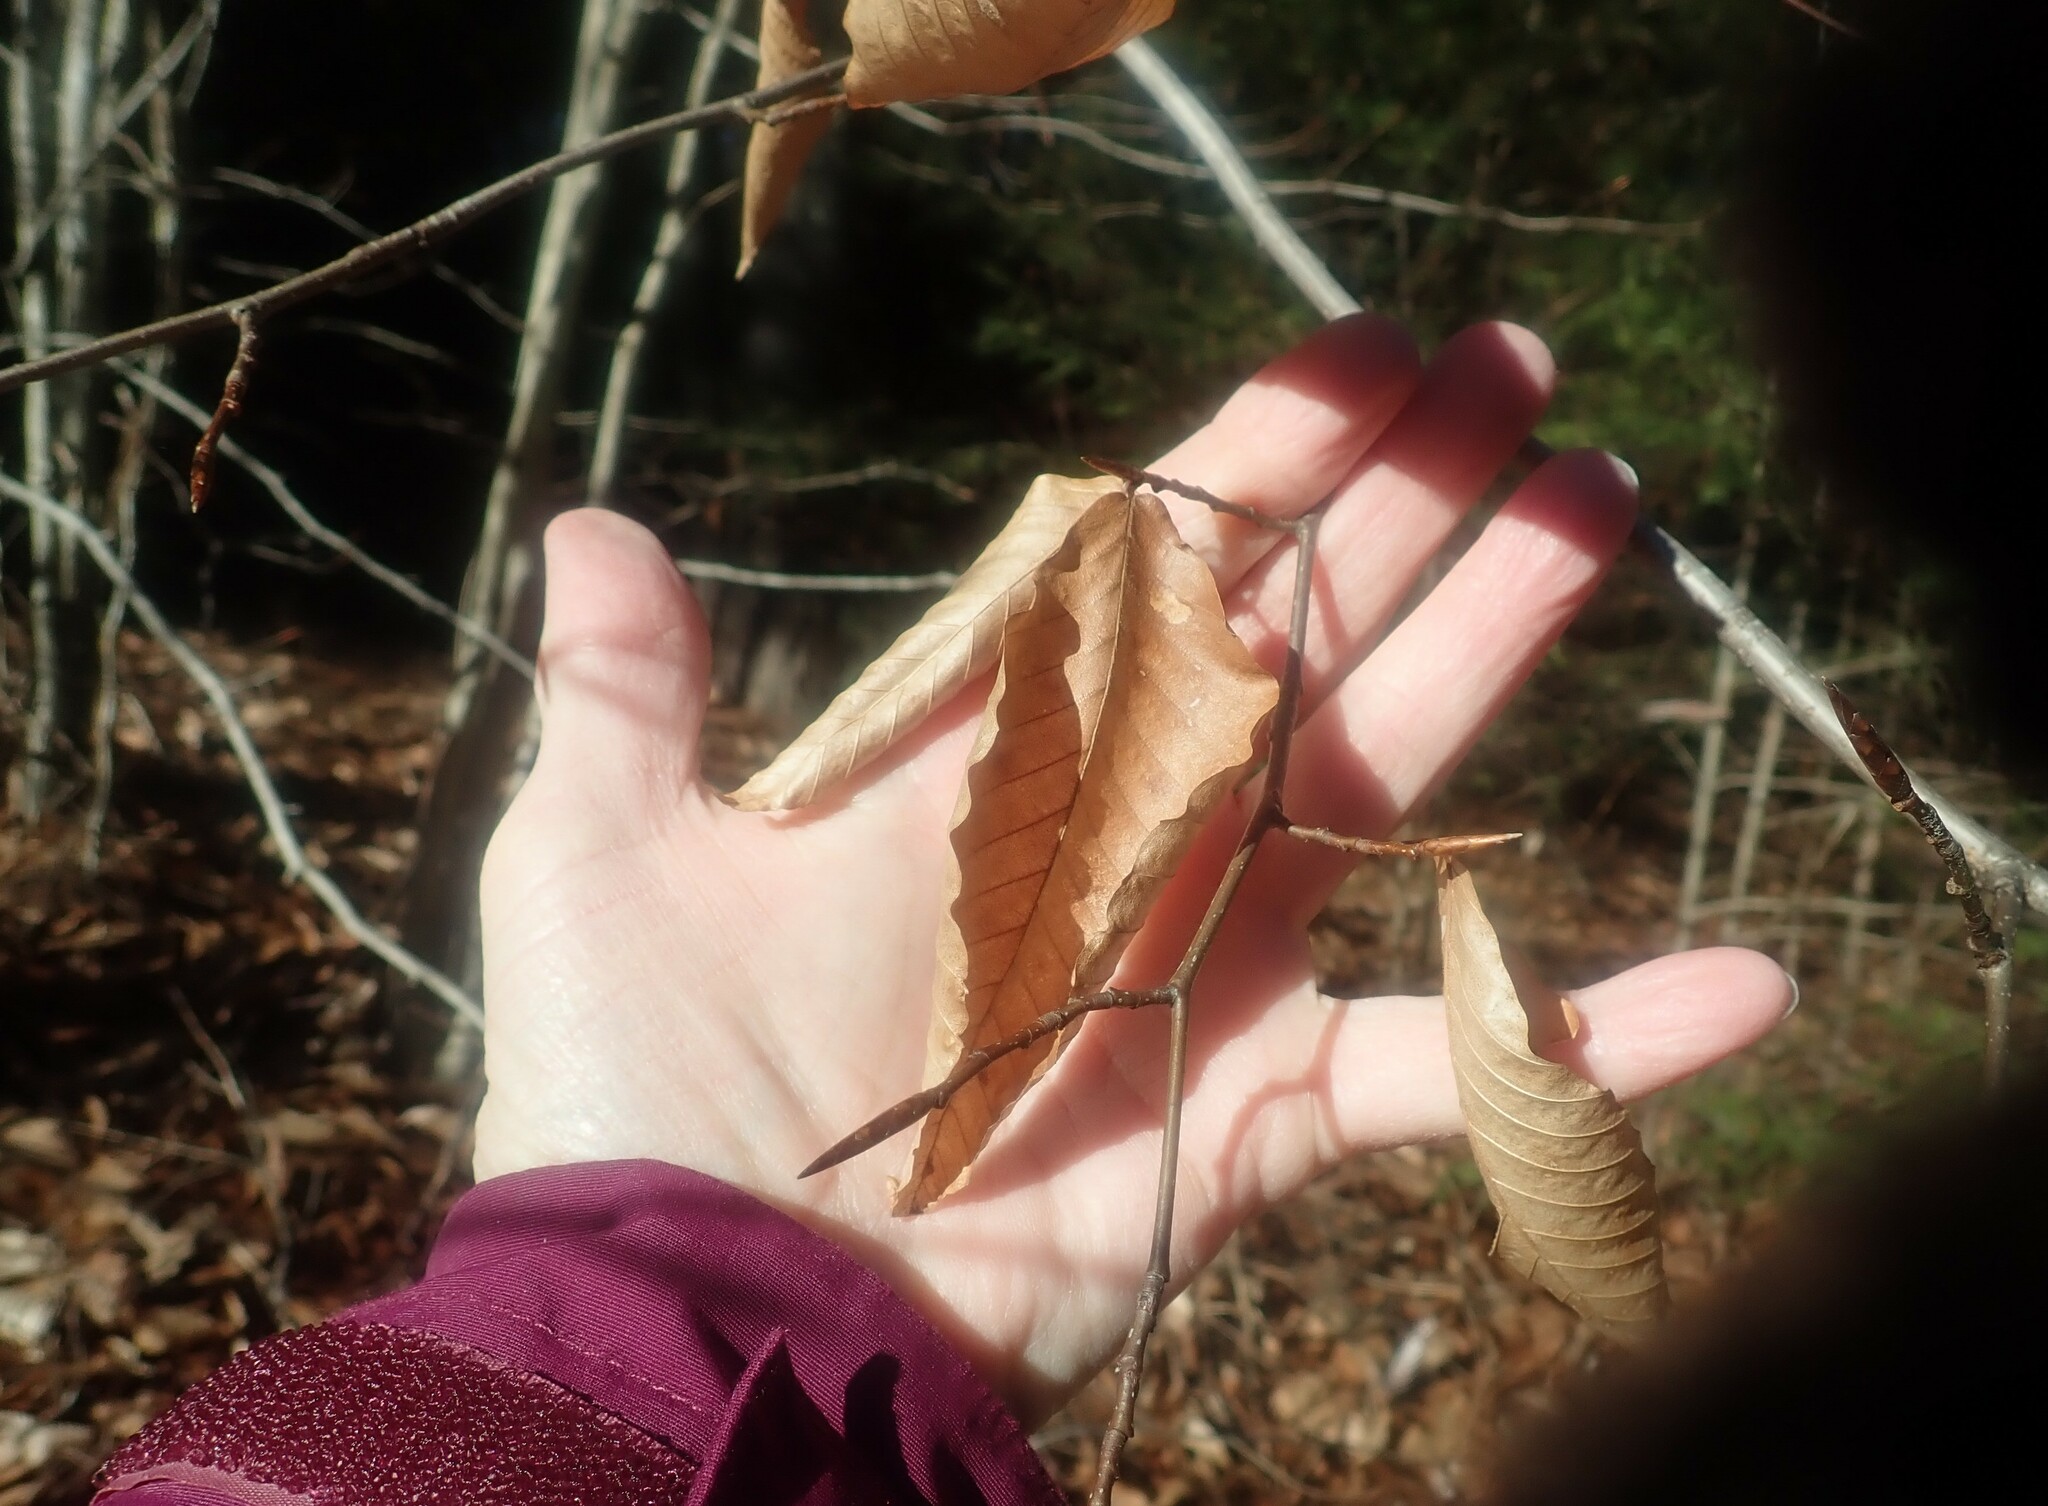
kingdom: Plantae
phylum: Tracheophyta
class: Magnoliopsida
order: Fagales
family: Fagaceae
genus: Fagus
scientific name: Fagus grandifolia
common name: American beech
